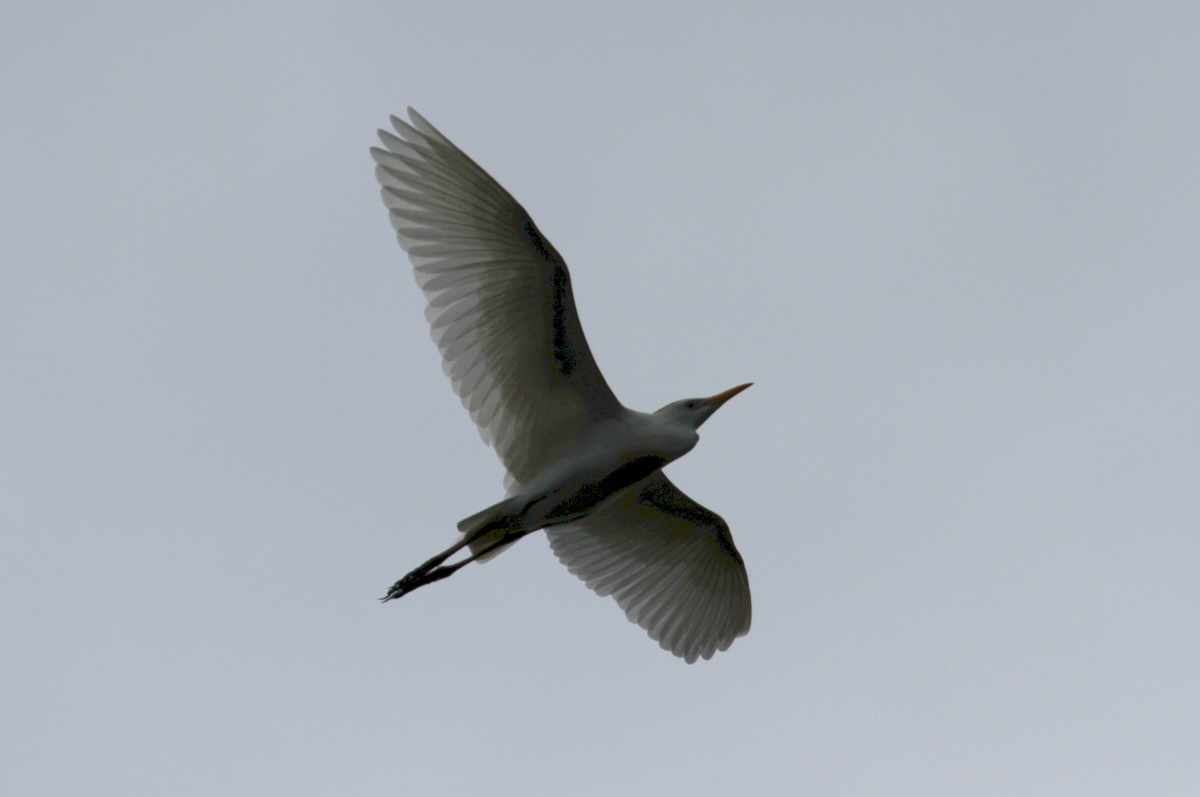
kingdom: Animalia
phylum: Chordata
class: Aves
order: Pelecaniformes
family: Ardeidae
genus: Bubulcus
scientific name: Bubulcus ibis
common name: Cattle egret
